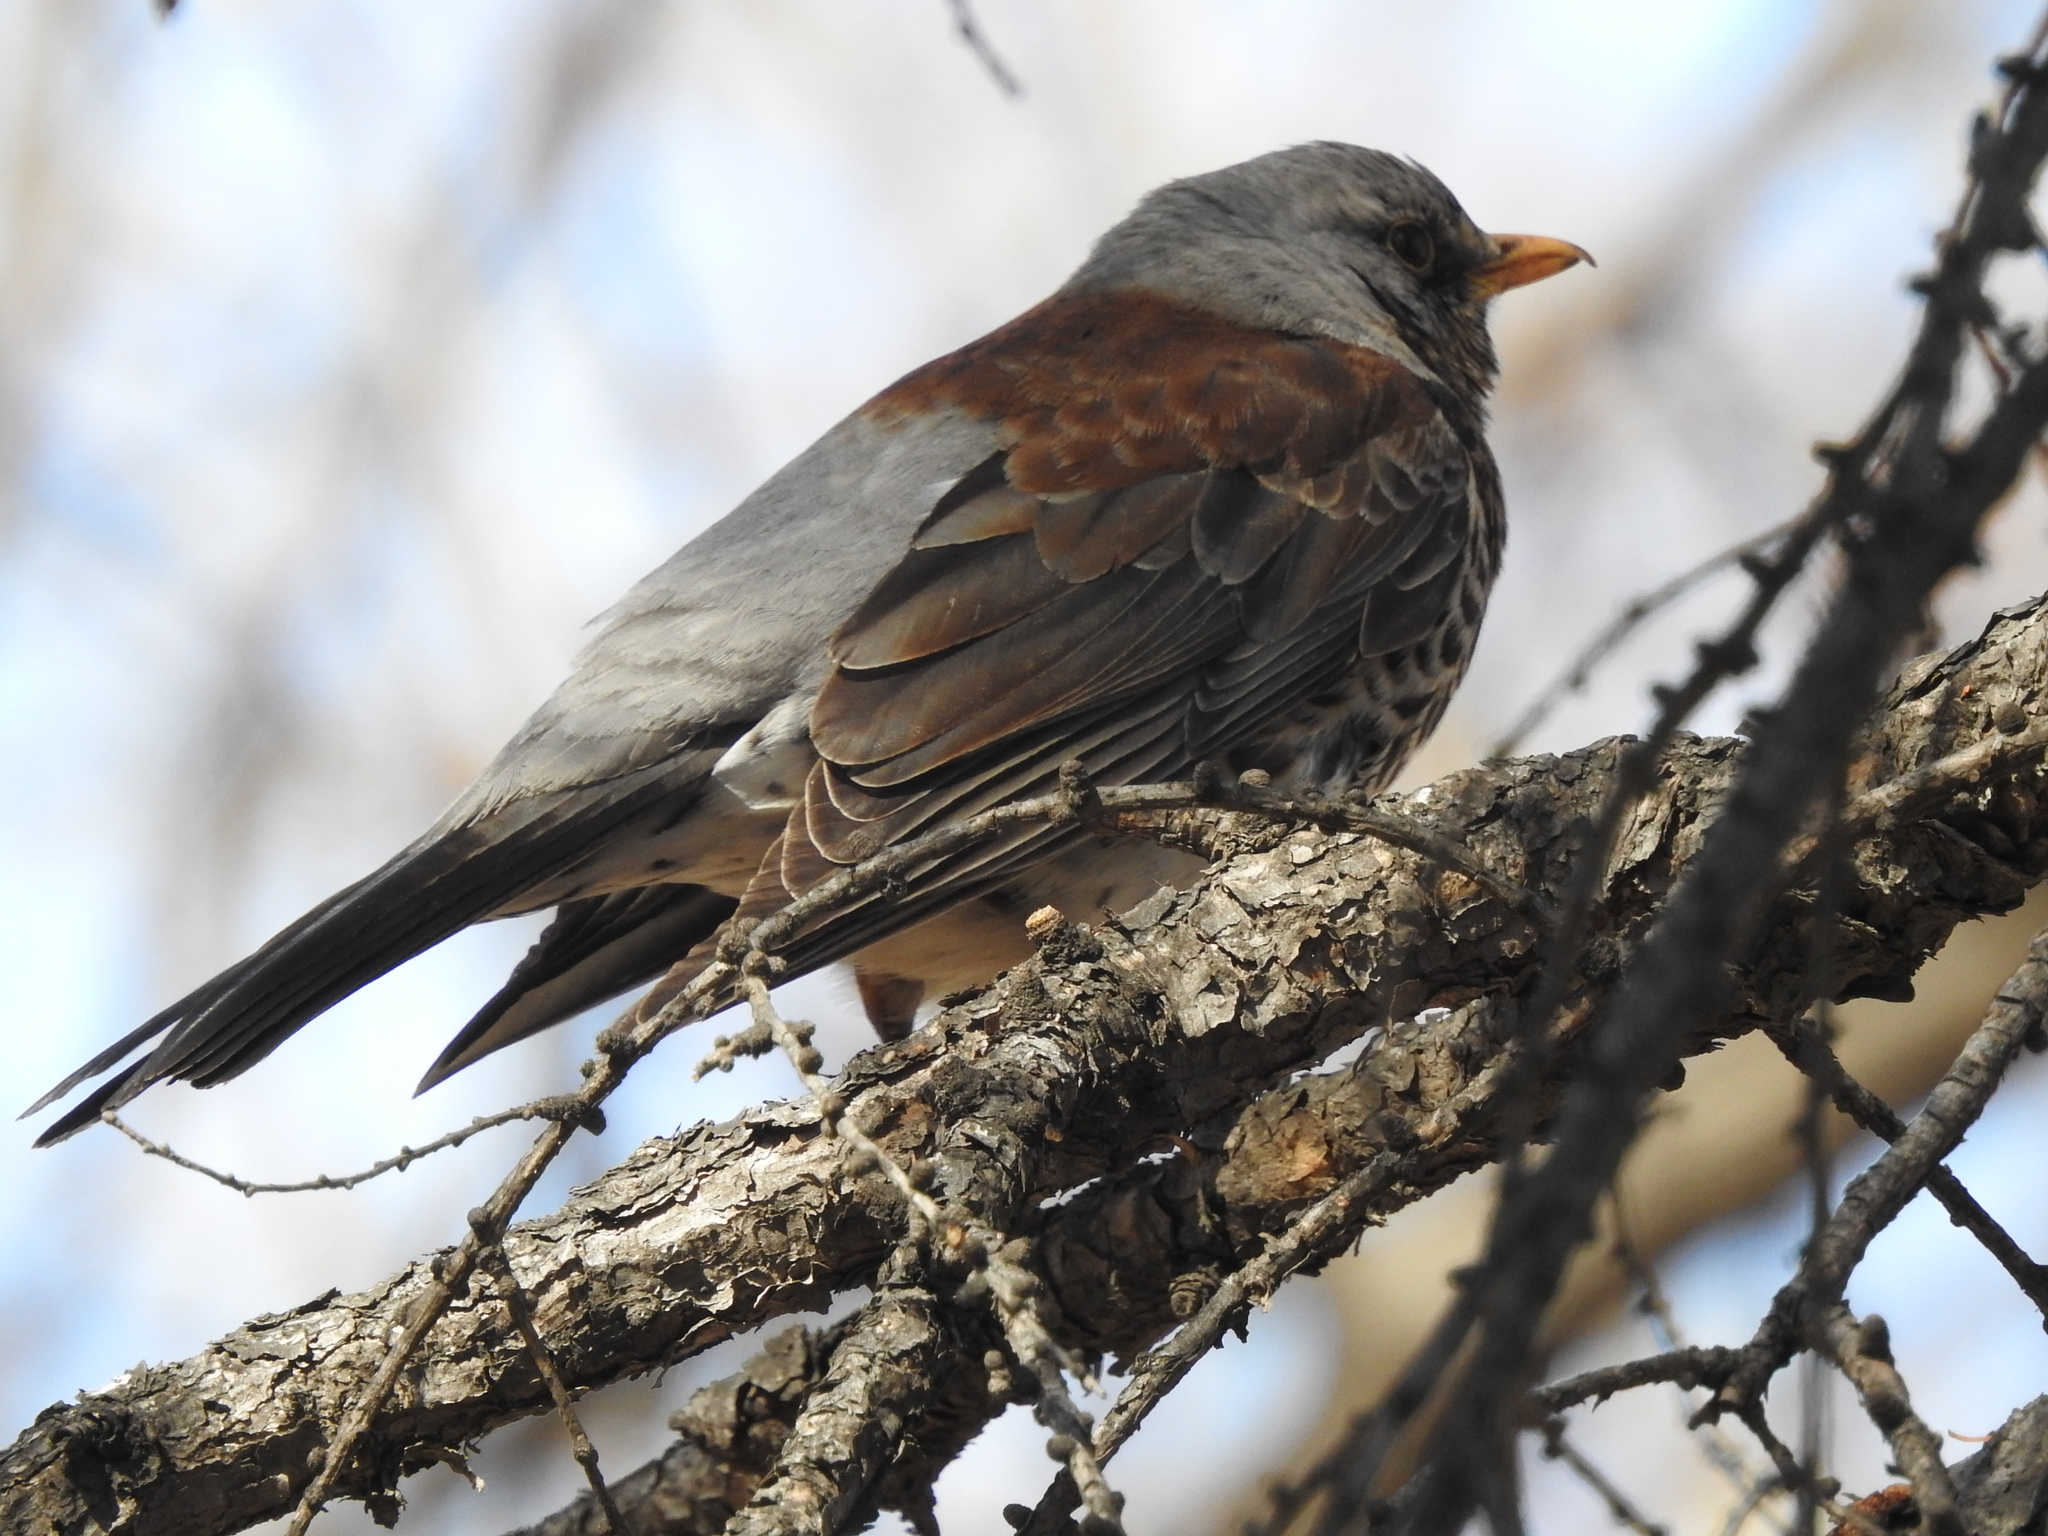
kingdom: Animalia
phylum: Chordata
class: Aves
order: Passeriformes
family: Turdidae
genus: Turdus
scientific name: Turdus pilaris
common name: Fieldfare
